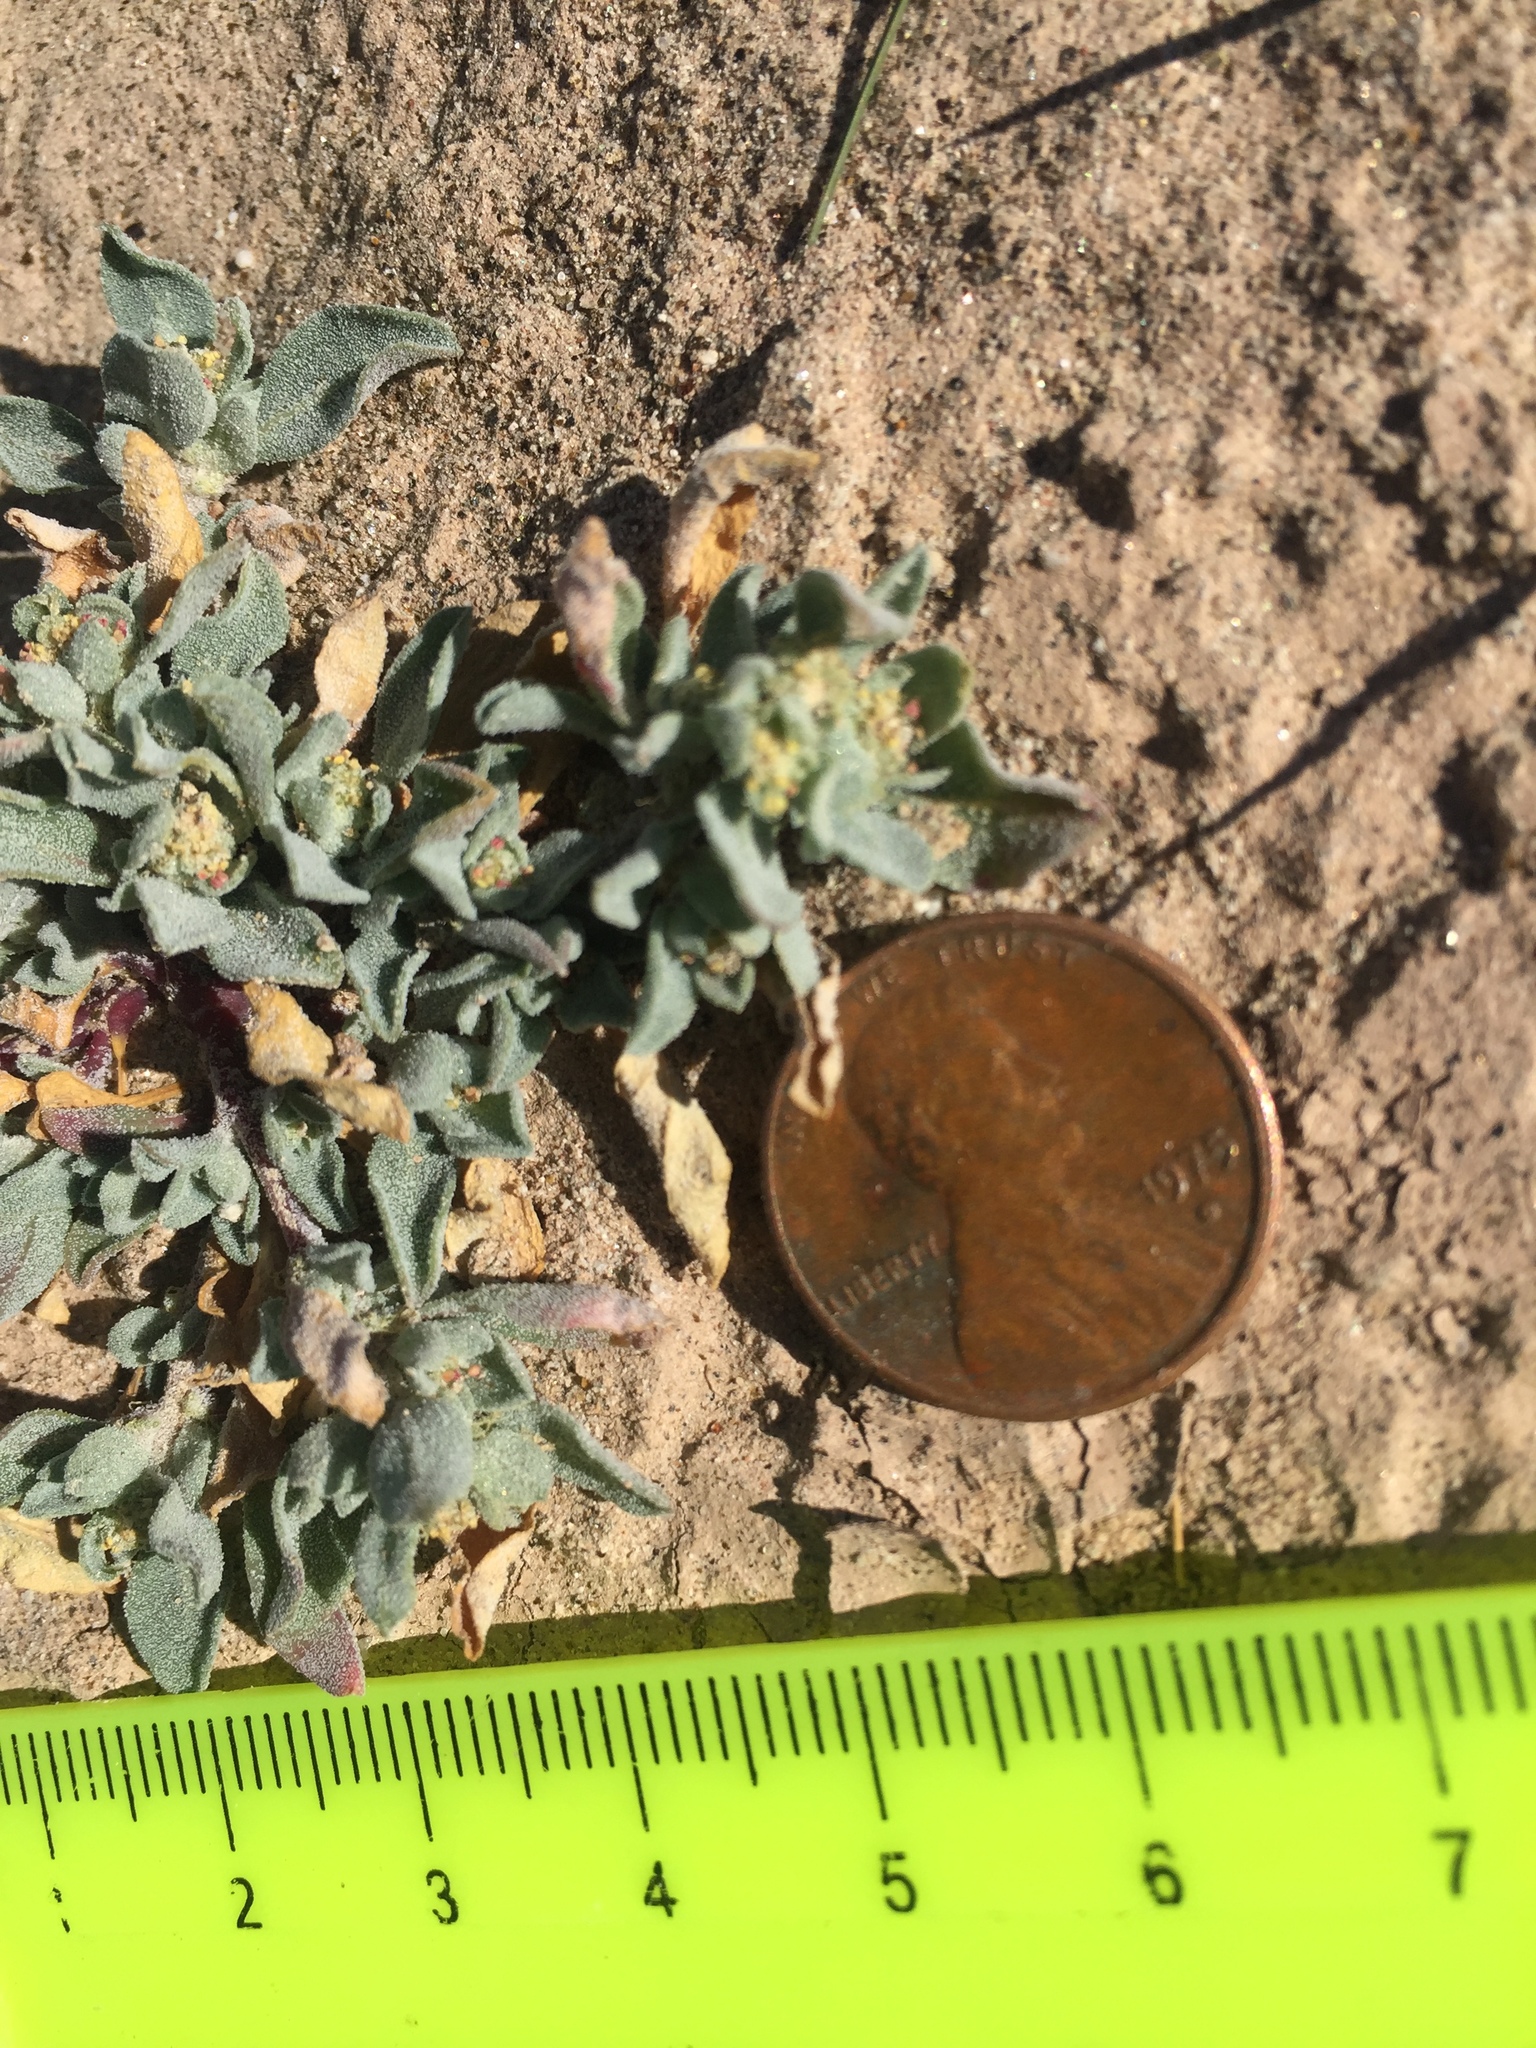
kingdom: Plantae
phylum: Tracheophyta
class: Magnoliopsida
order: Caryophyllales
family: Amaranthaceae
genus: Atriplex
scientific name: Atriplex elegans
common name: Wheelscale orach
